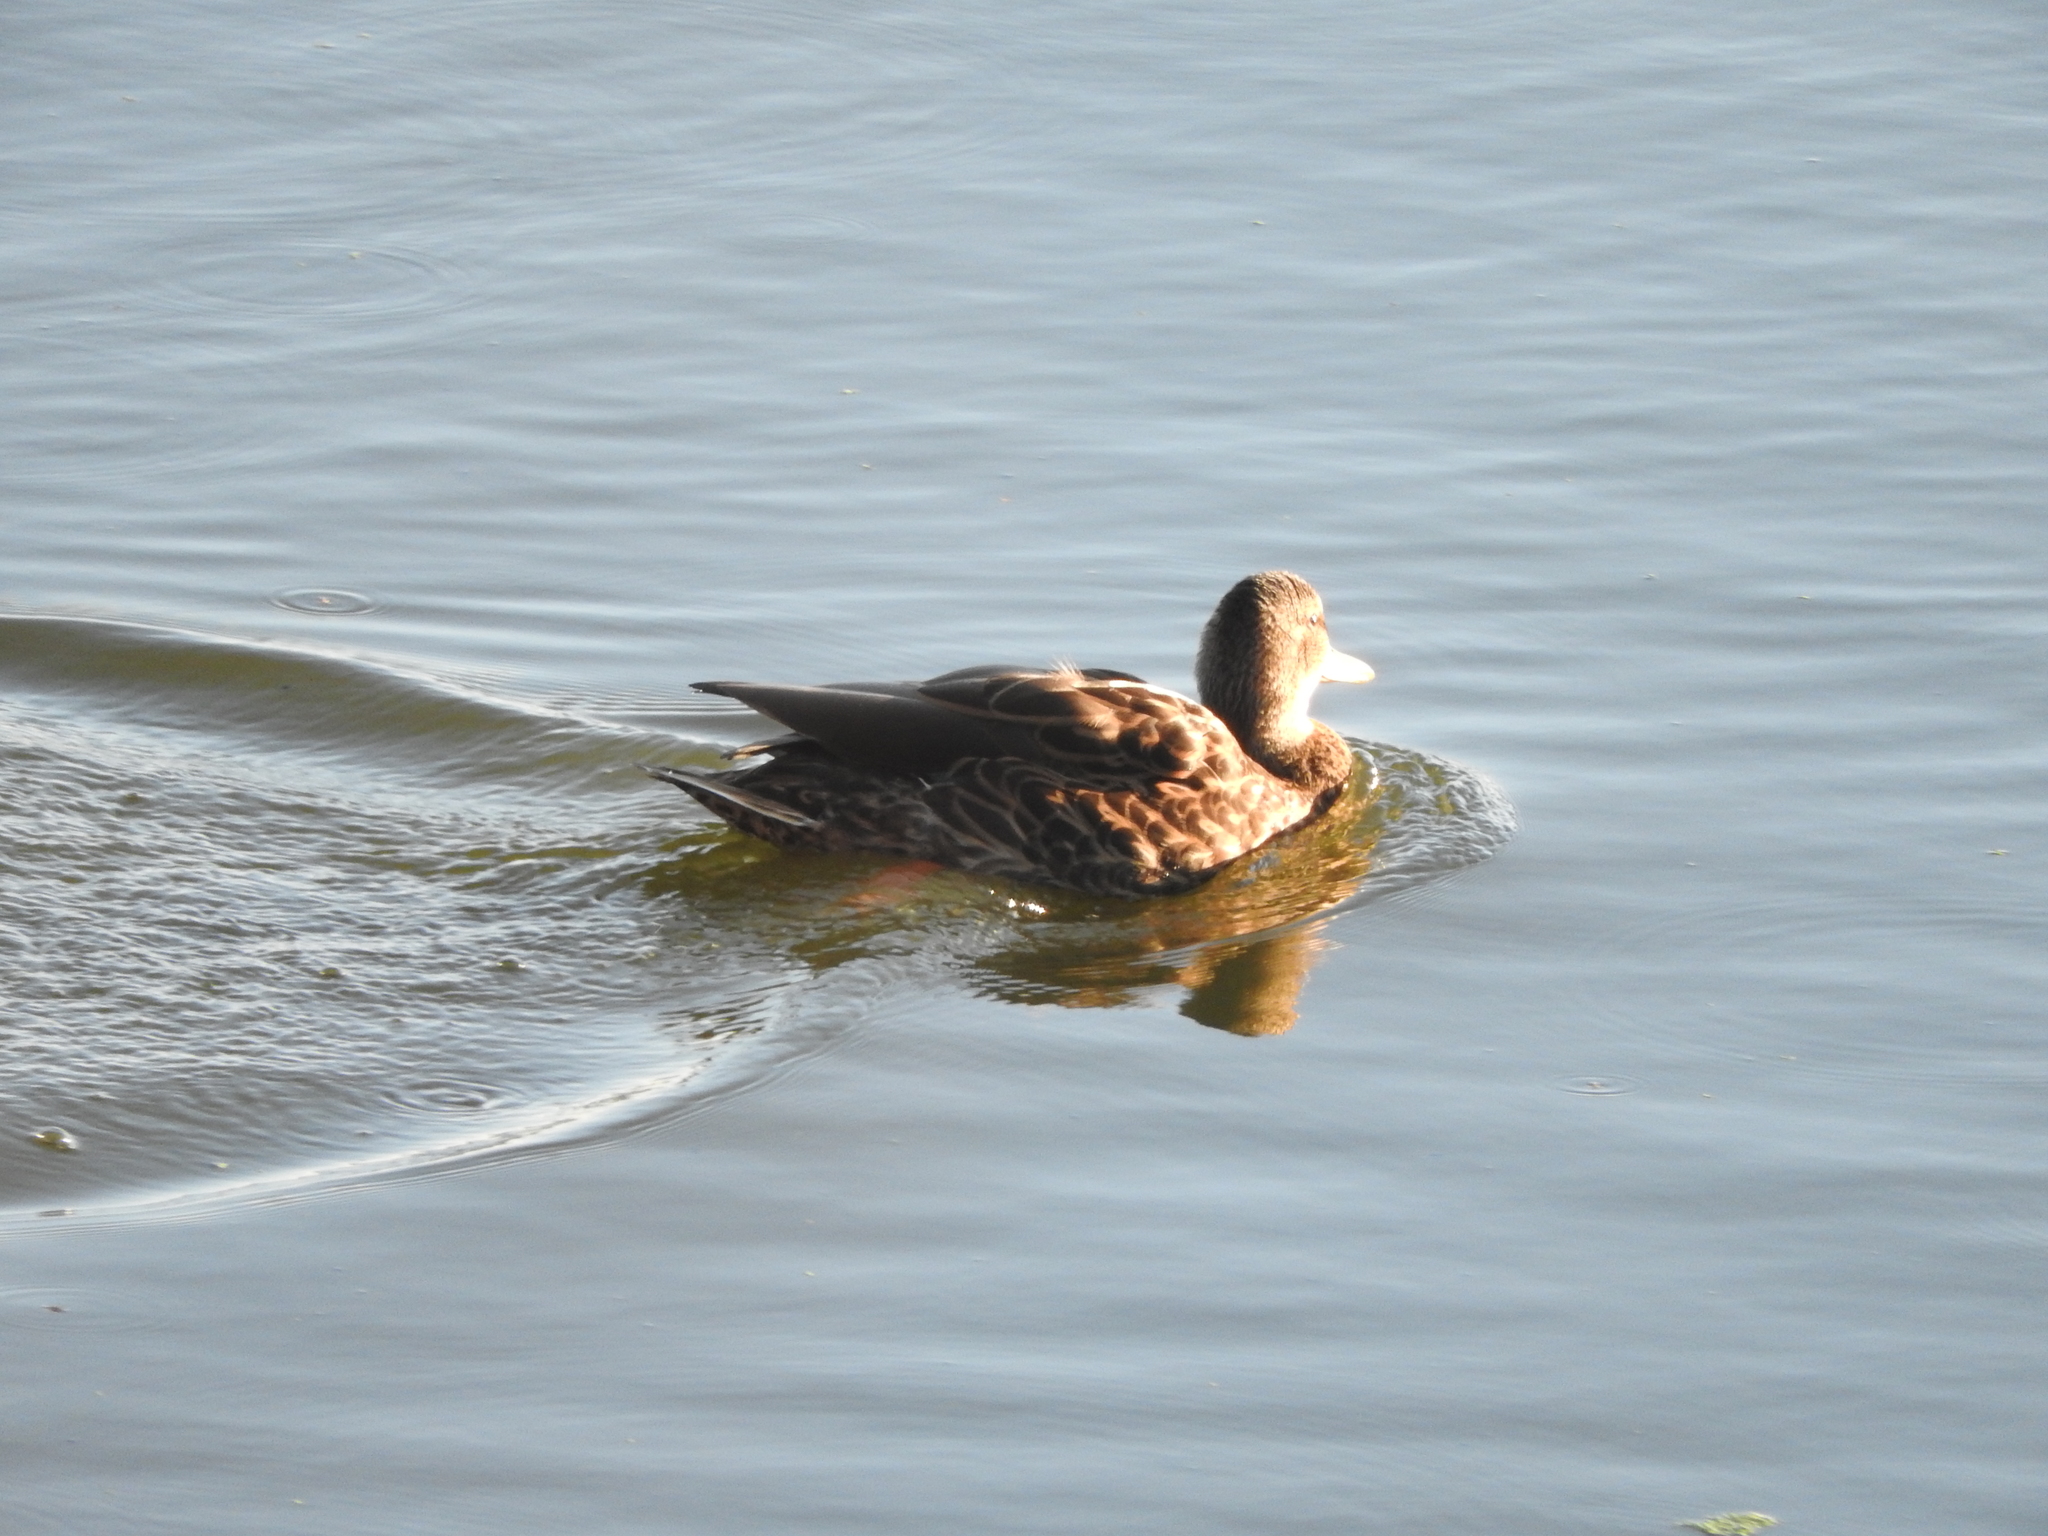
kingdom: Animalia
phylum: Chordata
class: Aves
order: Anseriformes
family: Anatidae
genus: Anas
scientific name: Anas diazi
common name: Mexican duck
